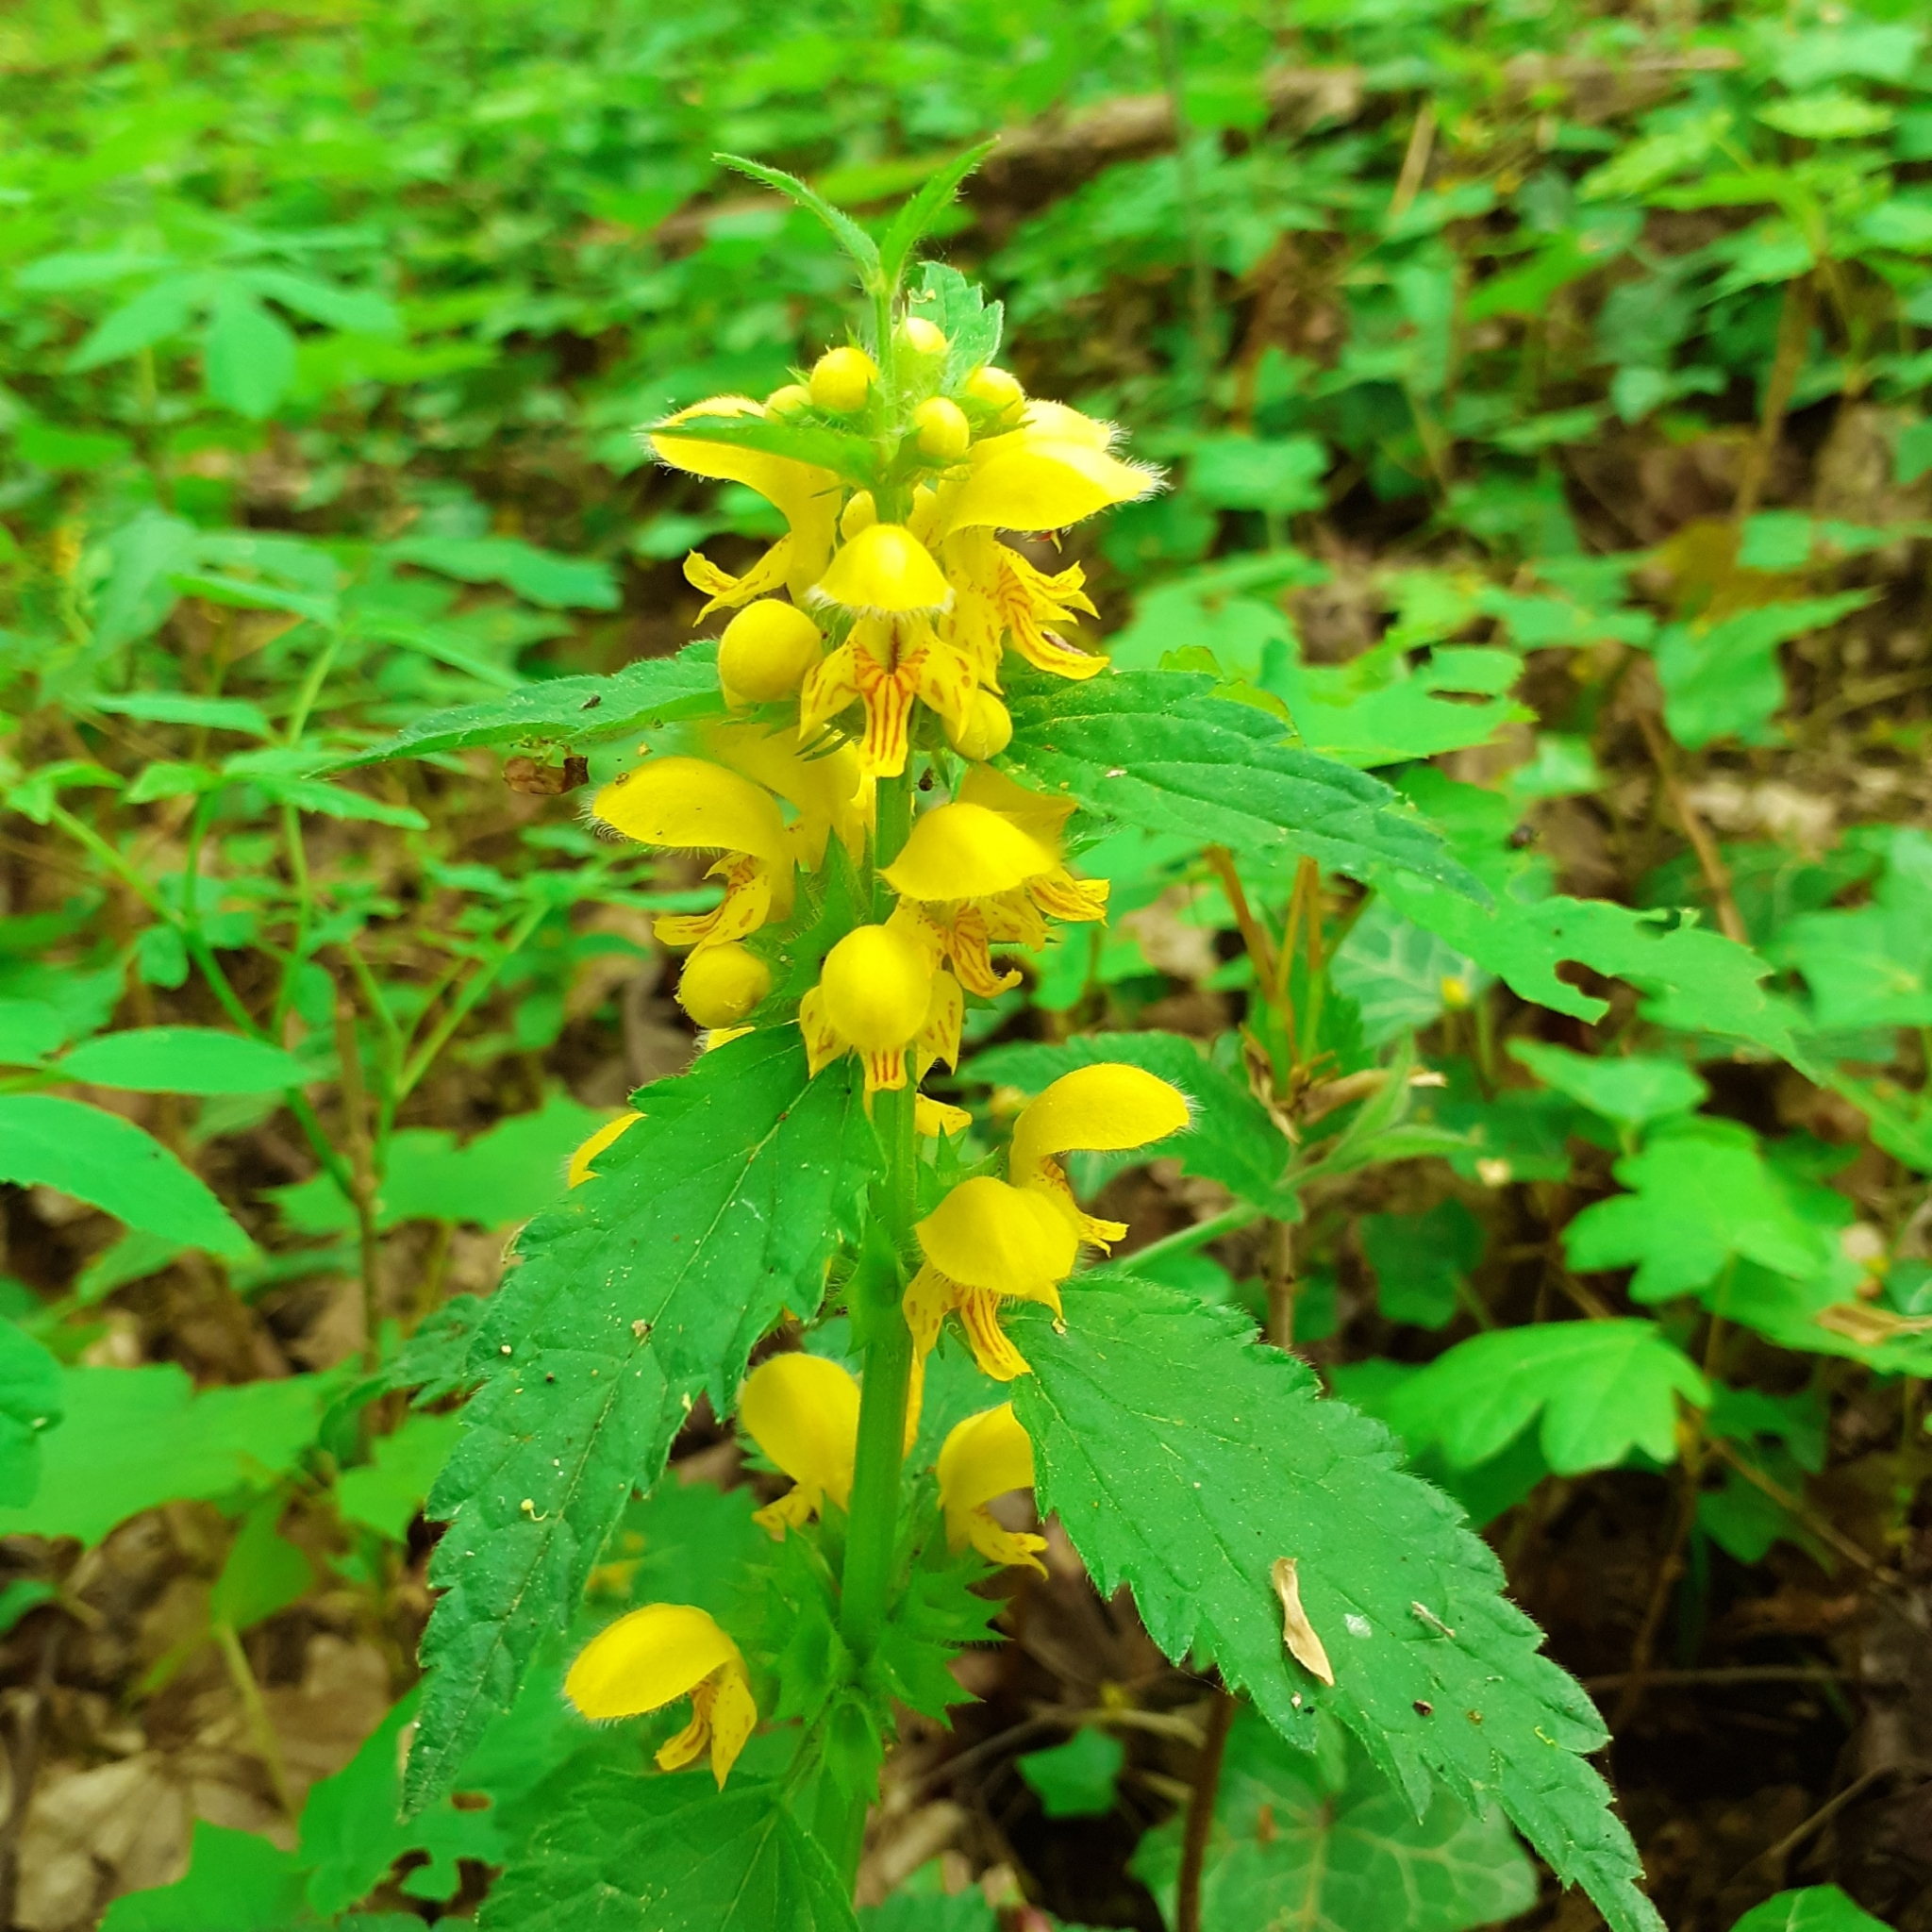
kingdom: Plantae
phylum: Tracheophyta
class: Magnoliopsida
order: Lamiales
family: Lamiaceae
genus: Lamium
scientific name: Lamium galeobdolon
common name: Yellow archangel
